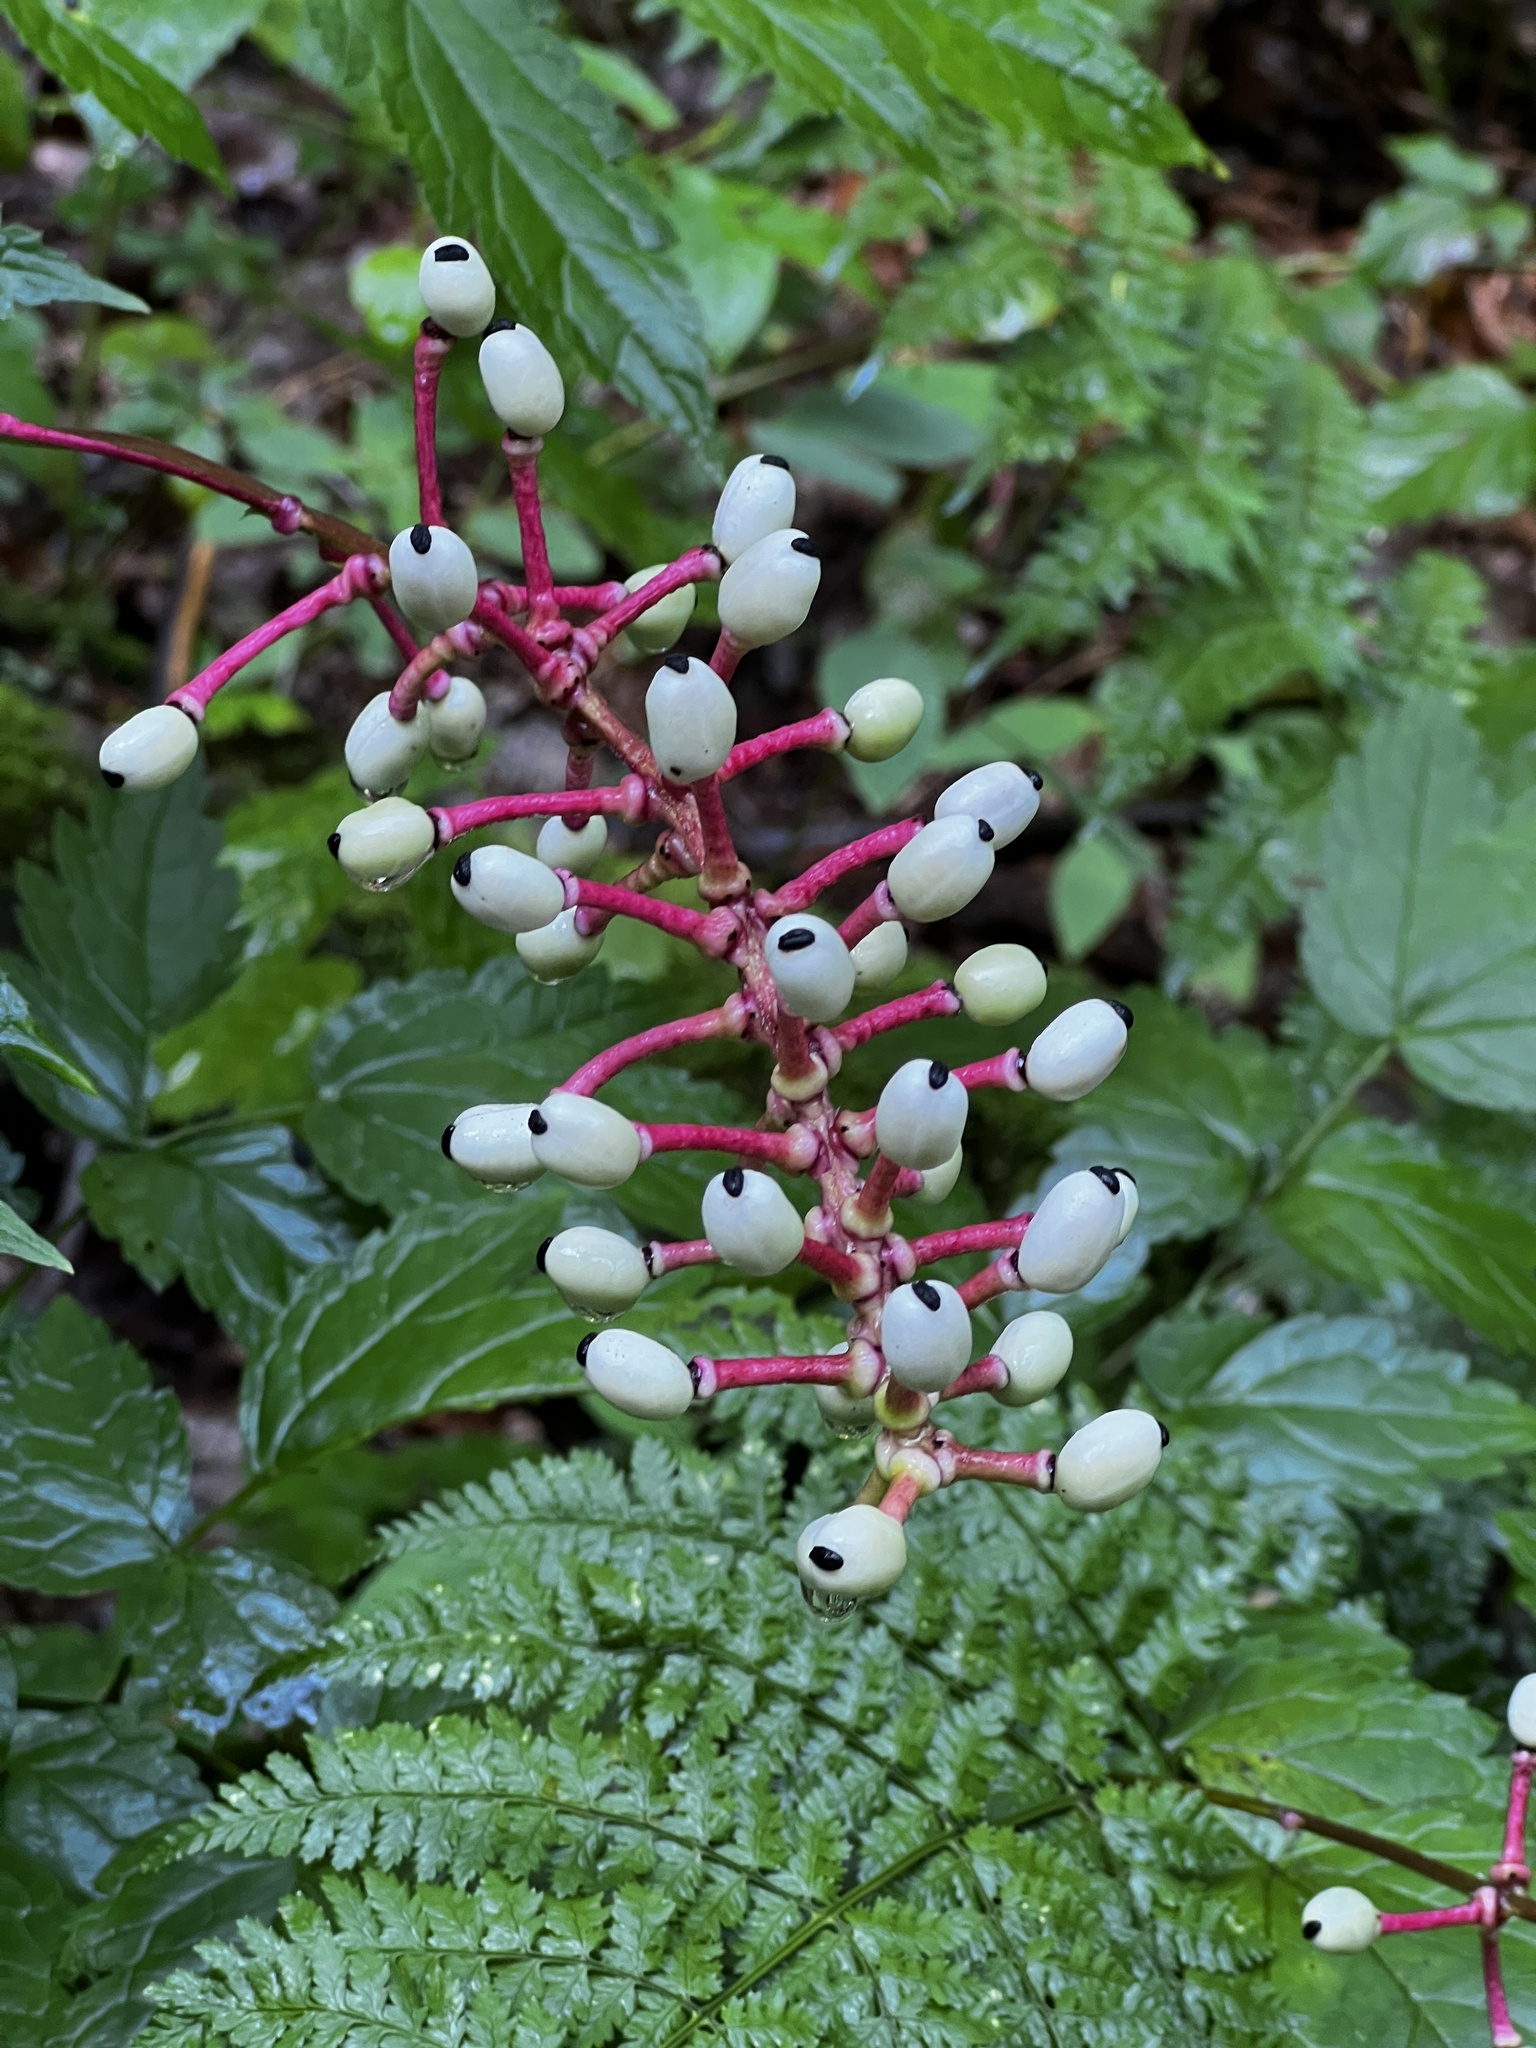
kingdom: Plantae
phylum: Tracheophyta
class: Magnoliopsida
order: Ranunculales
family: Ranunculaceae
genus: Actaea
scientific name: Actaea pachypoda
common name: Doll's-eyes
